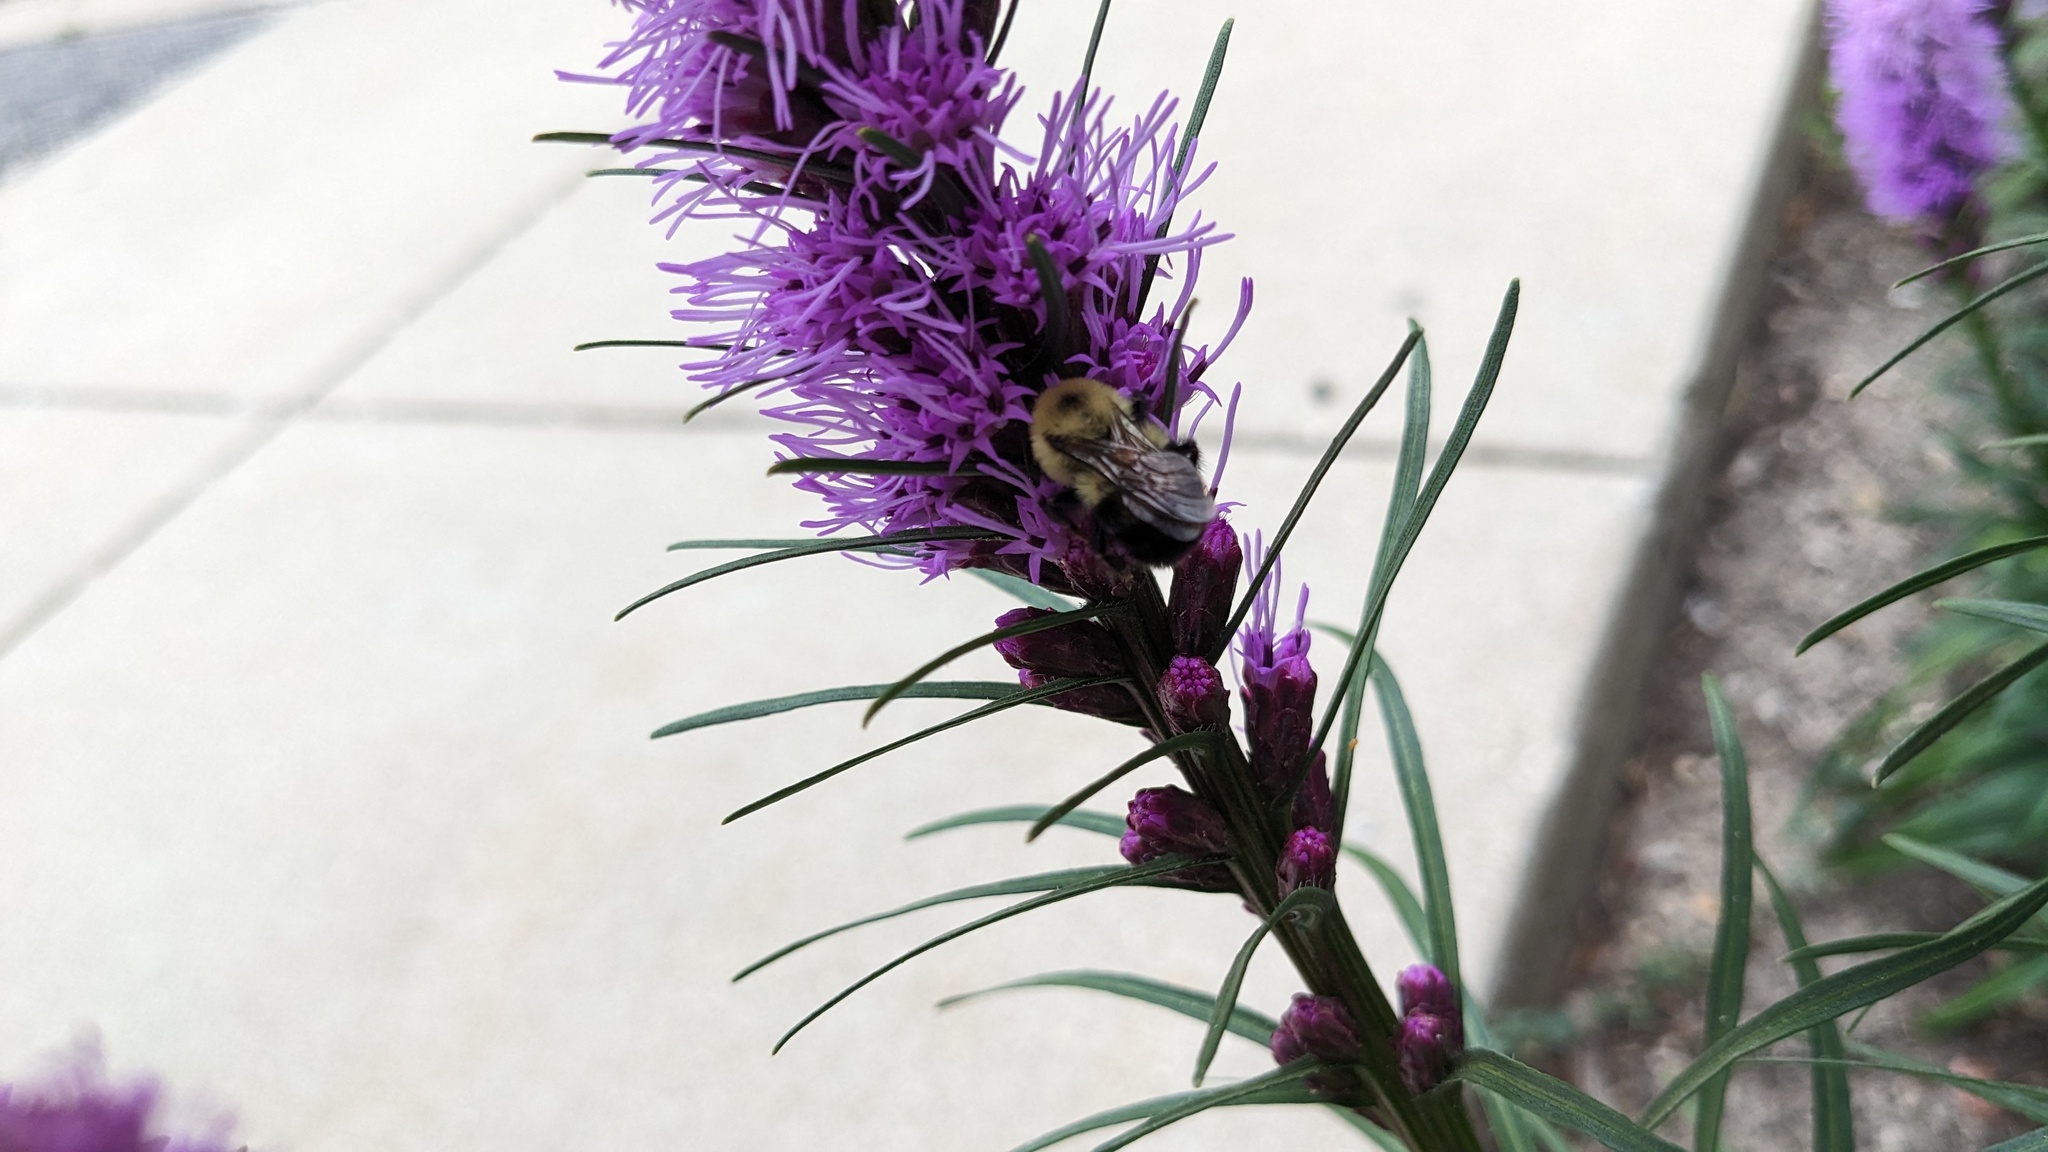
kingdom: Animalia
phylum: Arthropoda
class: Insecta
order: Hymenoptera
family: Apidae
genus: Bombus
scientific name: Bombus bimaculatus
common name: Two-spotted bumble bee
